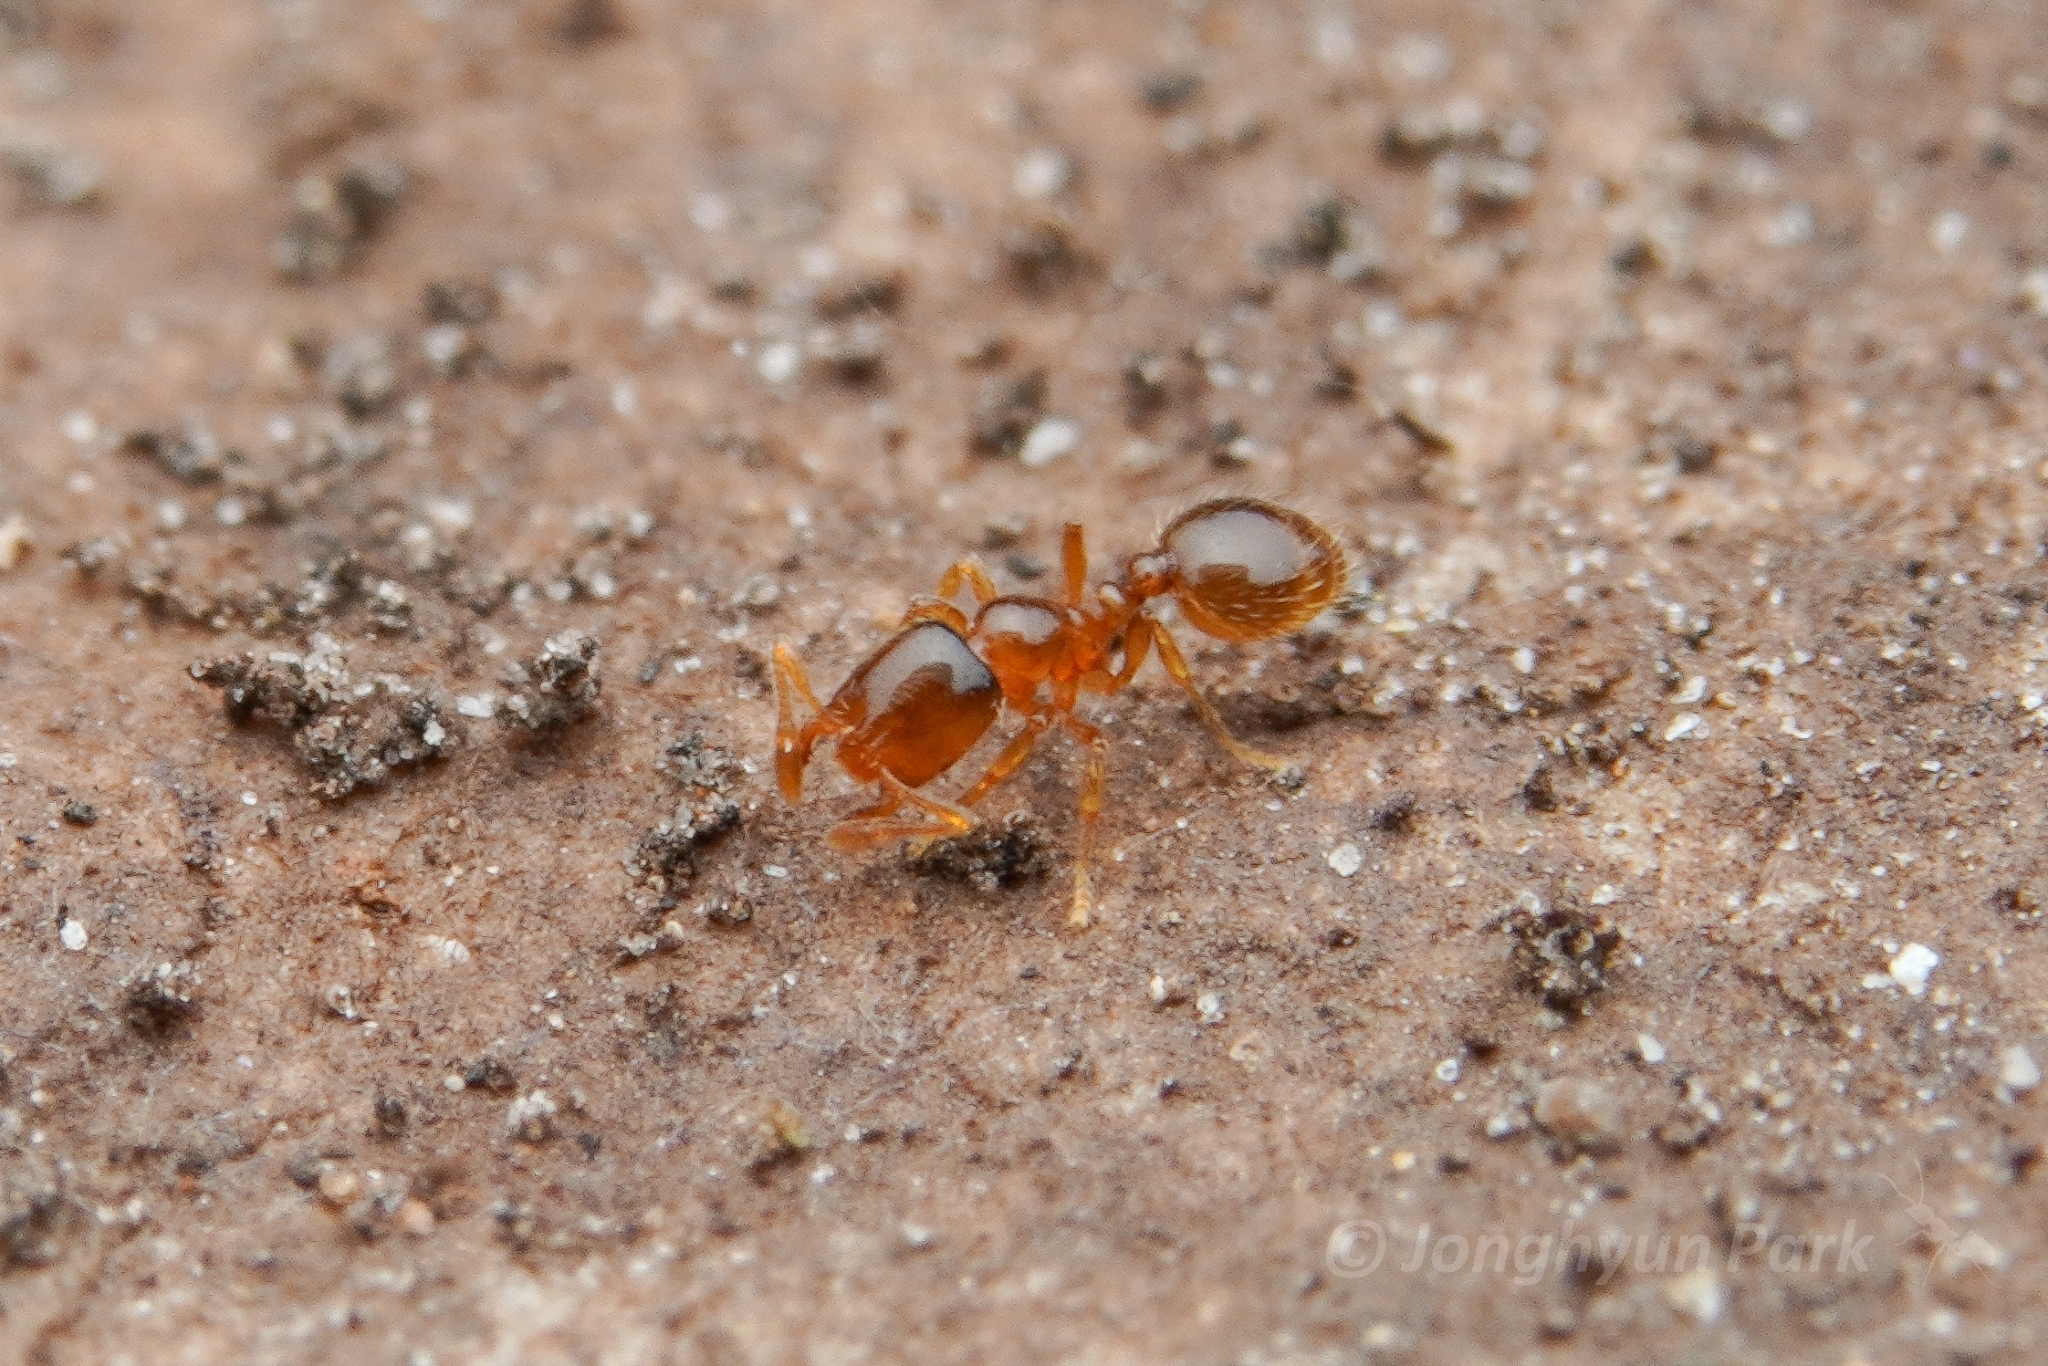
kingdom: Animalia
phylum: Arthropoda
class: Insecta
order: Hymenoptera
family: Formicidae
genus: Solenopsis
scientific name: Solenopsis
